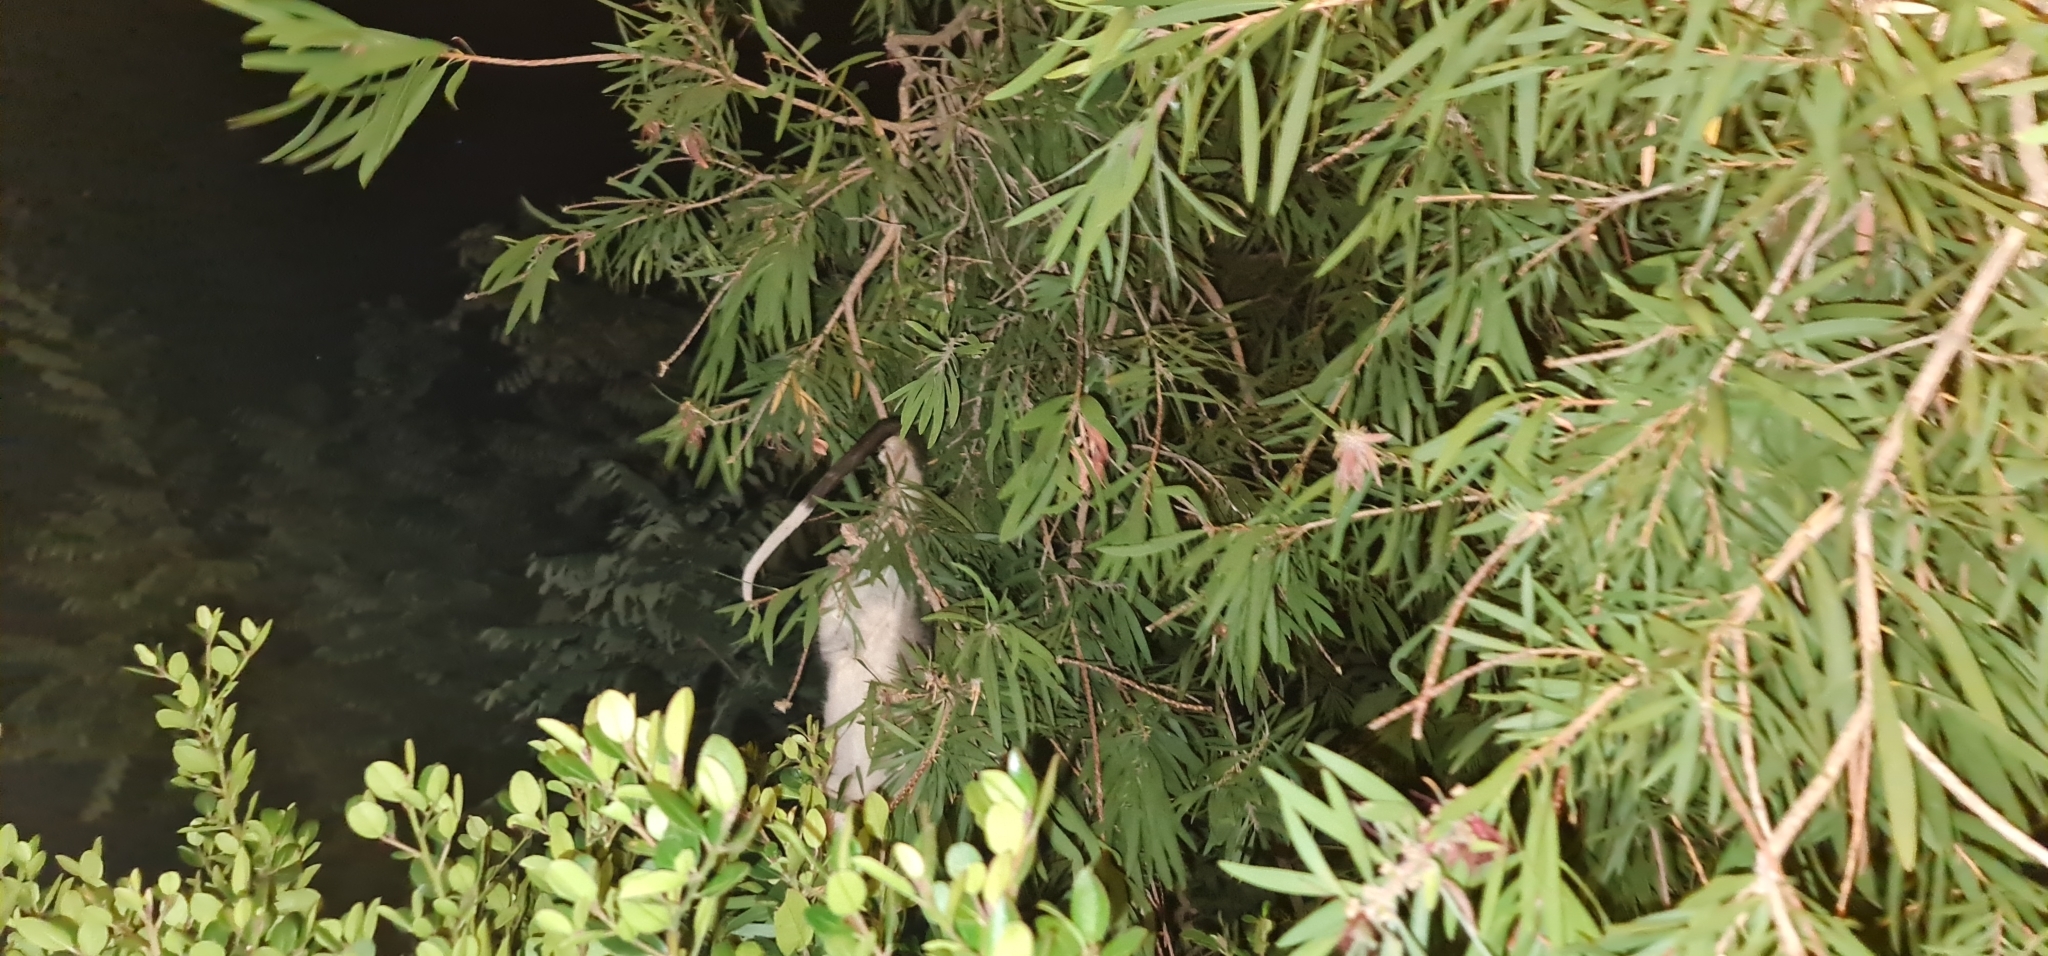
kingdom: Animalia
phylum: Chordata
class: Mammalia
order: Diprotodontia
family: Pseudocheiridae
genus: Pseudocheirus
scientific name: Pseudocheirus peregrinus
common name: Common ringtail possum
